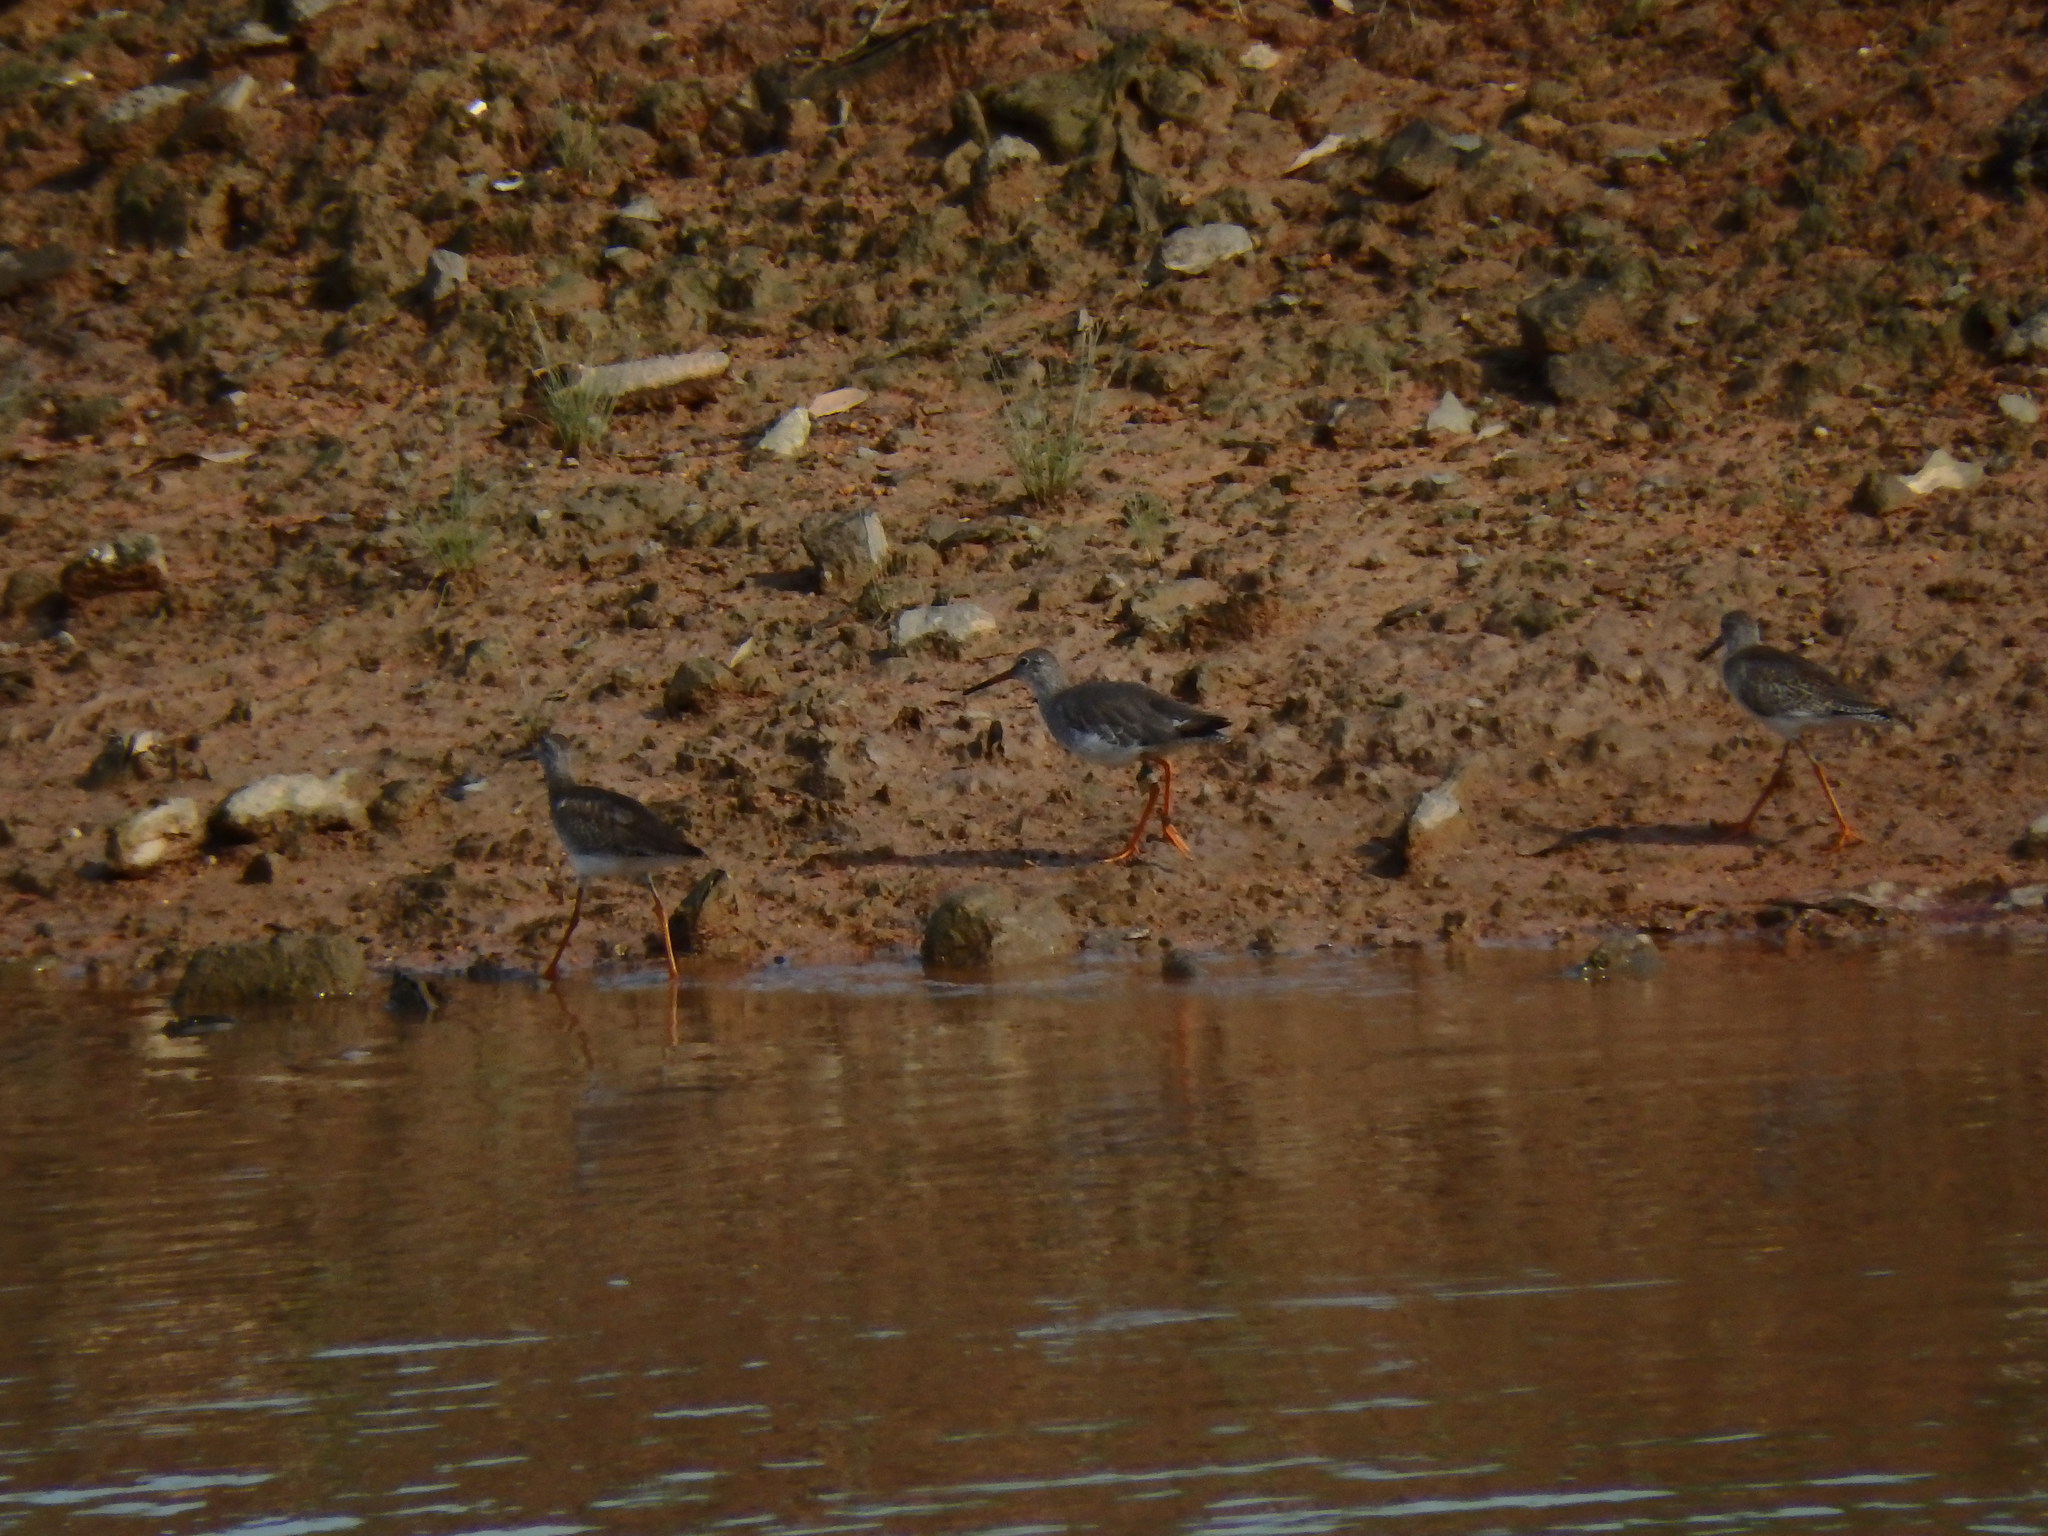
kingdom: Animalia
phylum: Chordata
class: Aves
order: Charadriiformes
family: Scolopacidae
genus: Tringa
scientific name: Tringa totanus
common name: Common redshank
